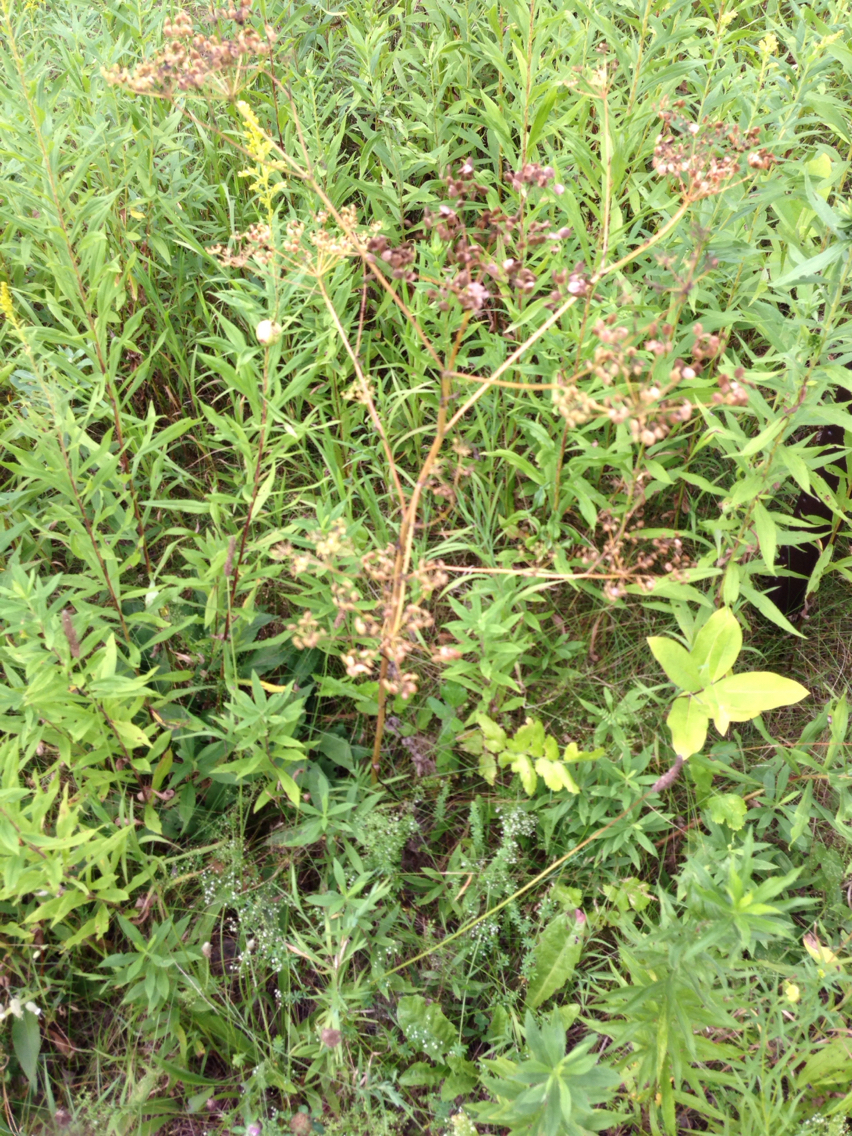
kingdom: Plantae
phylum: Tracheophyta
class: Magnoliopsida
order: Apiales
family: Apiaceae
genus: Pastinaca
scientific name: Pastinaca sativa
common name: Wild parsnip
